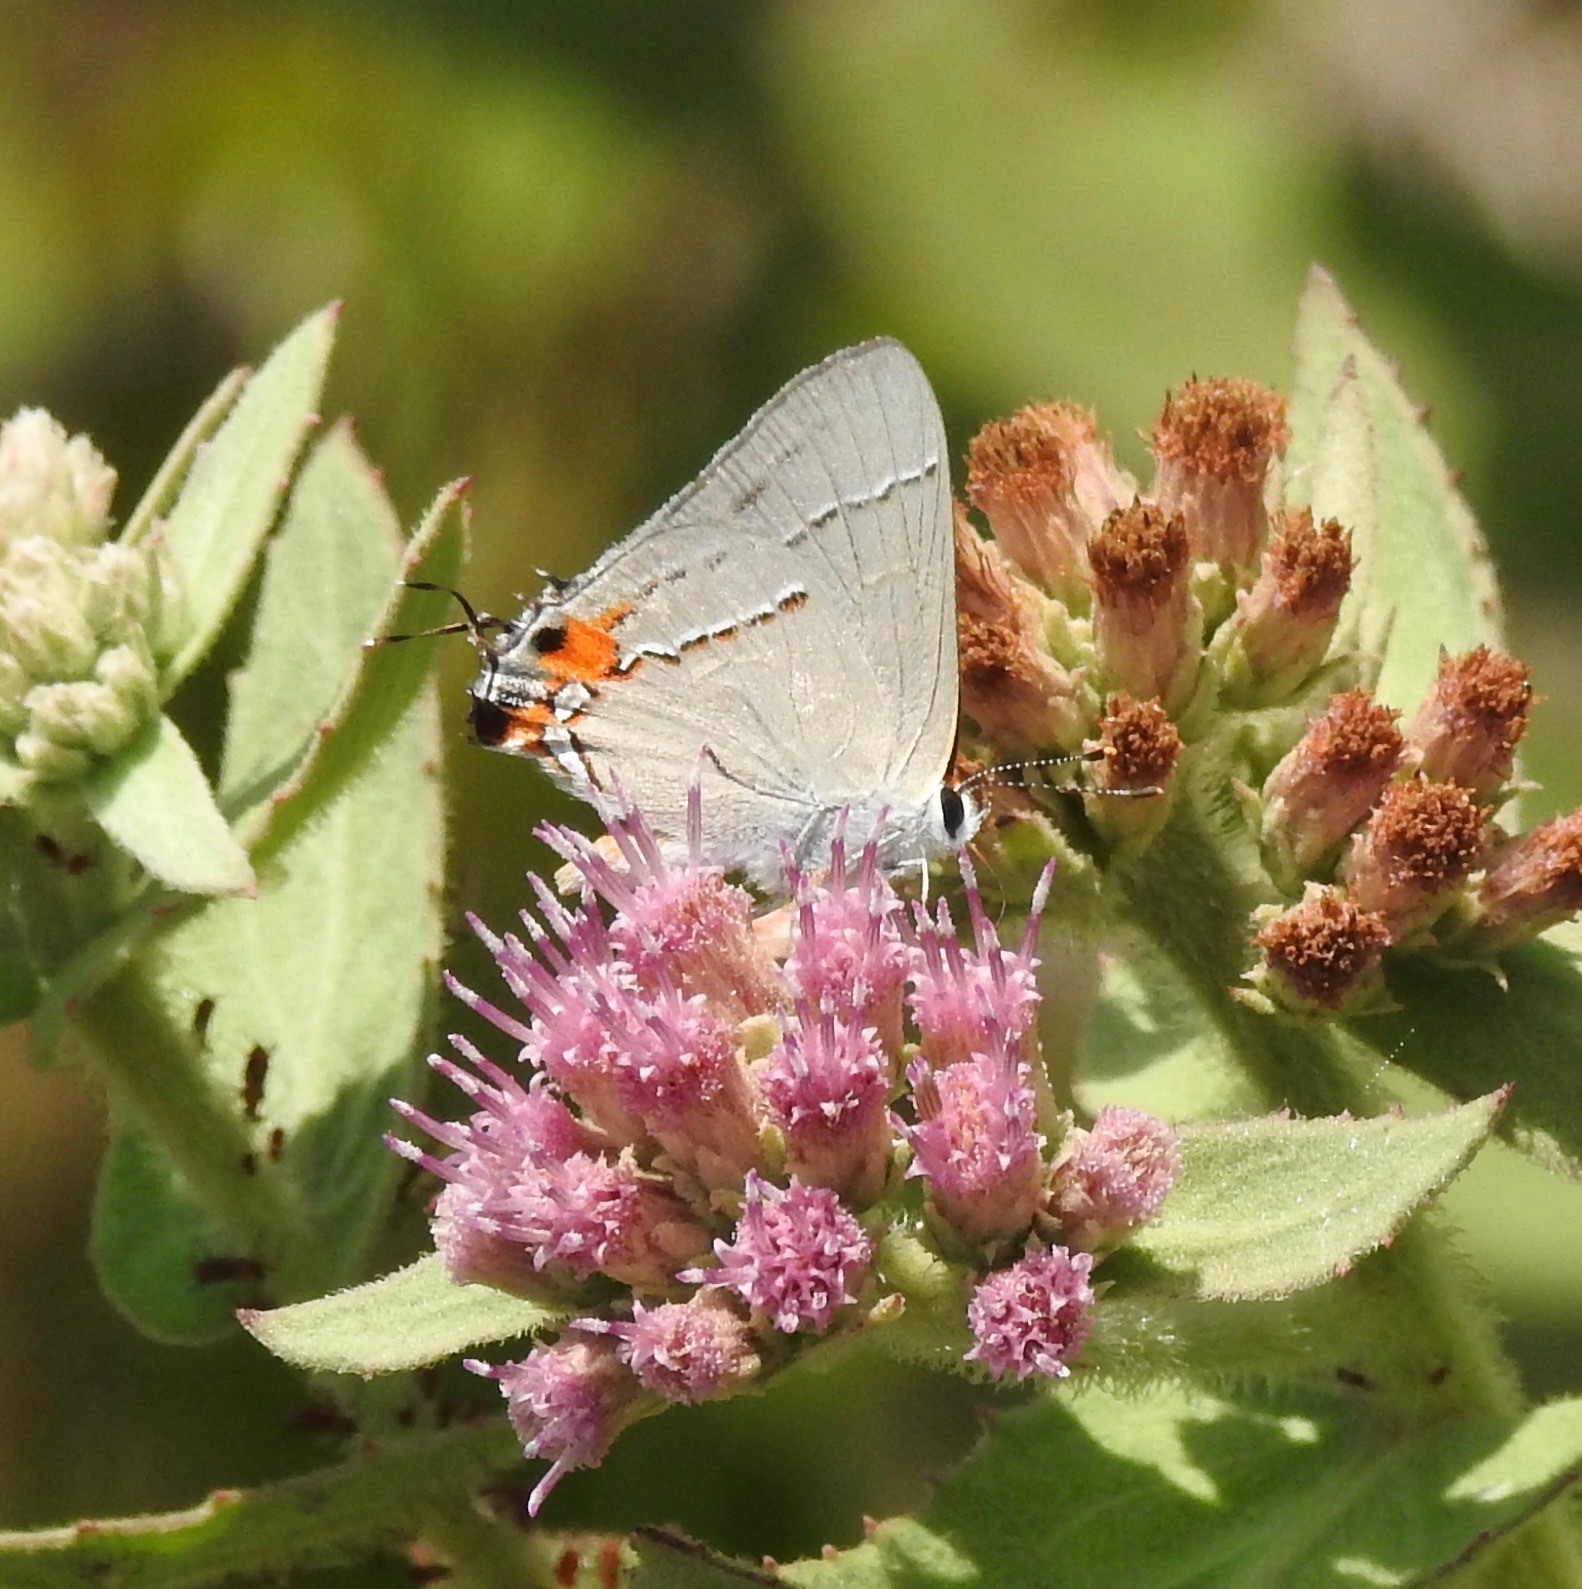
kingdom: Animalia
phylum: Arthropoda
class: Insecta
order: Lepidoptera
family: Lycaenidae
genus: Strymon
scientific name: Strymon melinus
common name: Gray hairstreak
